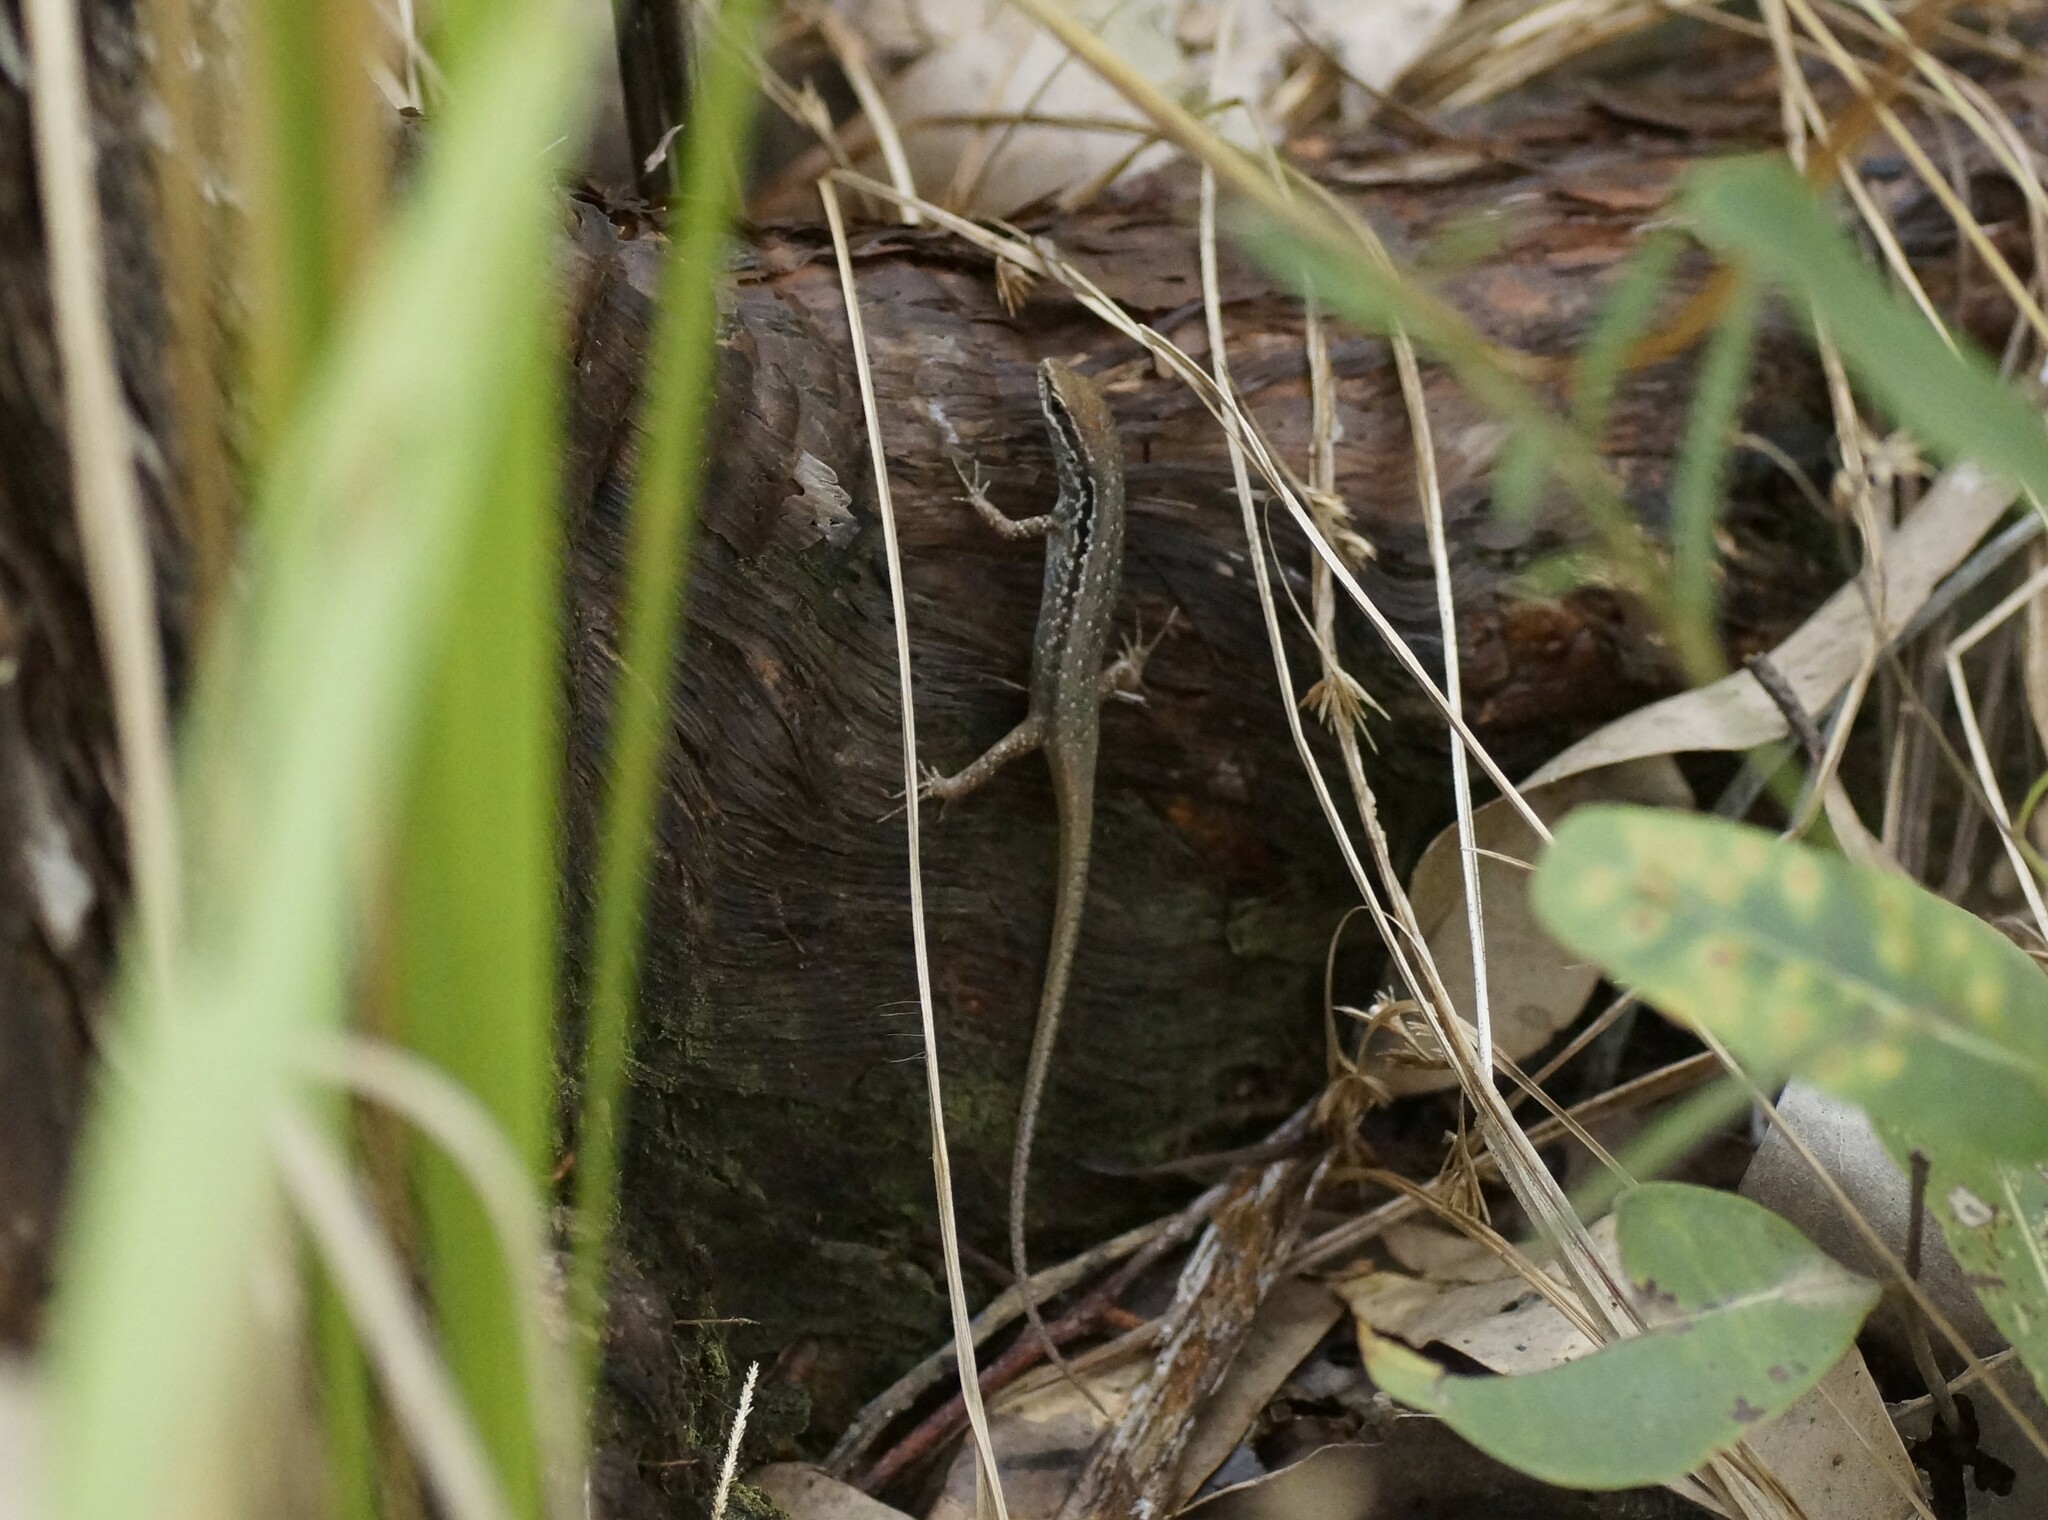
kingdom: Animalia
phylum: Chordata
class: Squamata
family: Scincidae
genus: Carlia
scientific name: Carlia sexdentata
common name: Closed-litter rainbow-skink
